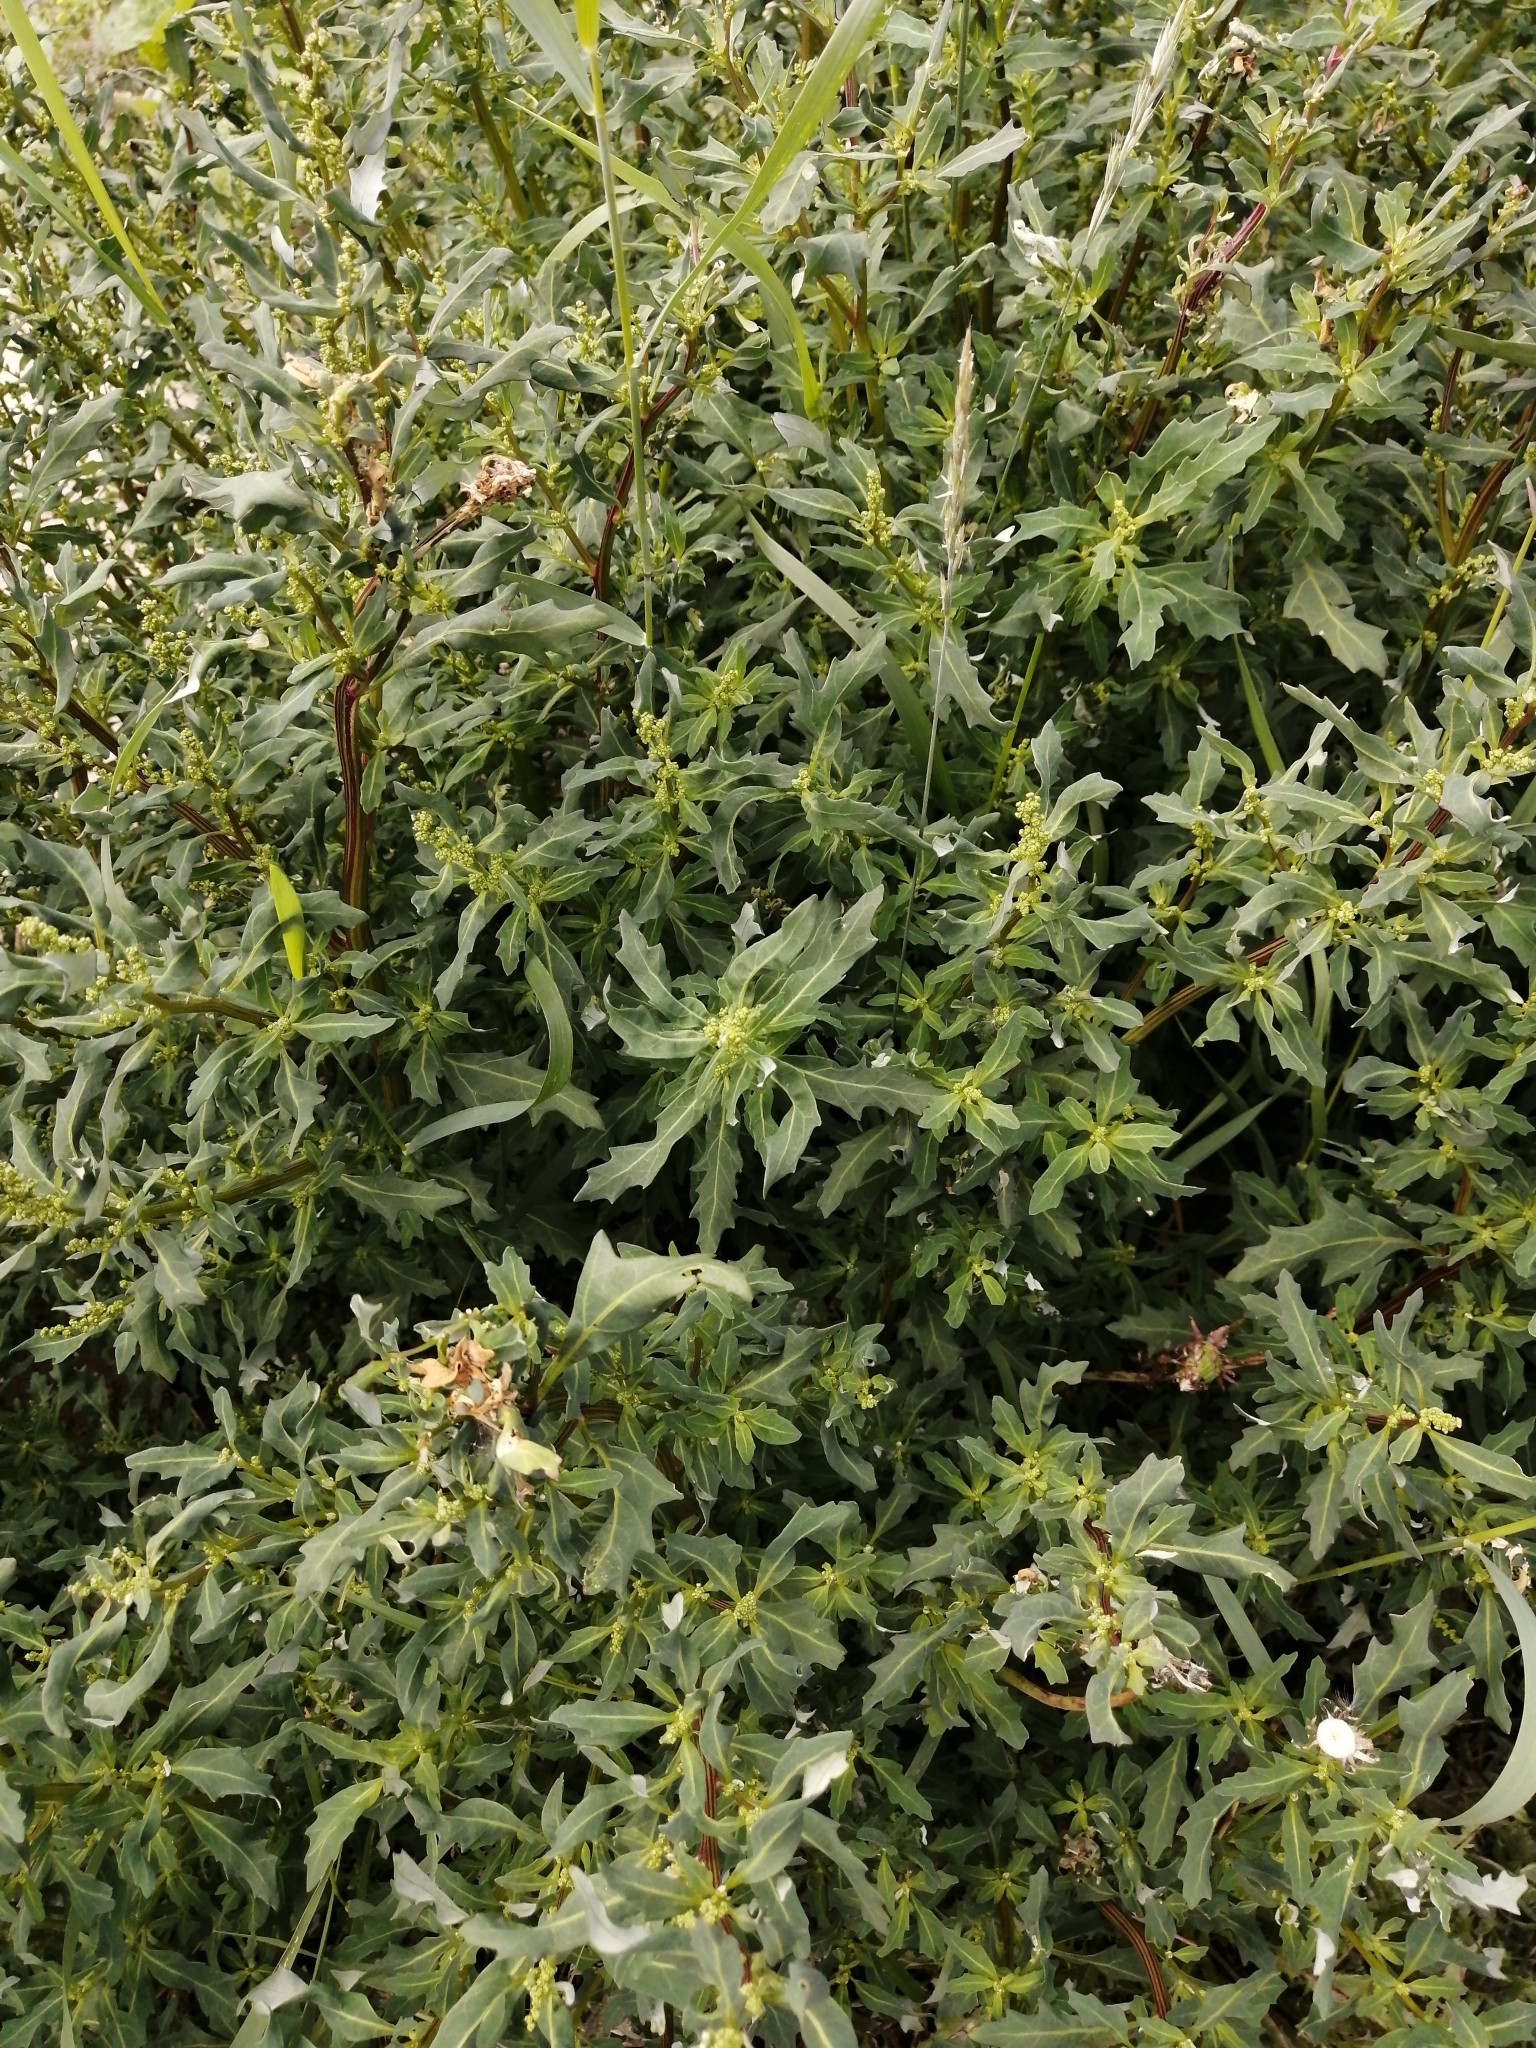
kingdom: Plantae
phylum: Tracheophyta
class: Magnoliopsida
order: Caryophyllales
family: Amaranthaceae
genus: Oxybasis
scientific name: Oxybasis glauca
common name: Glaucous goosefoot
